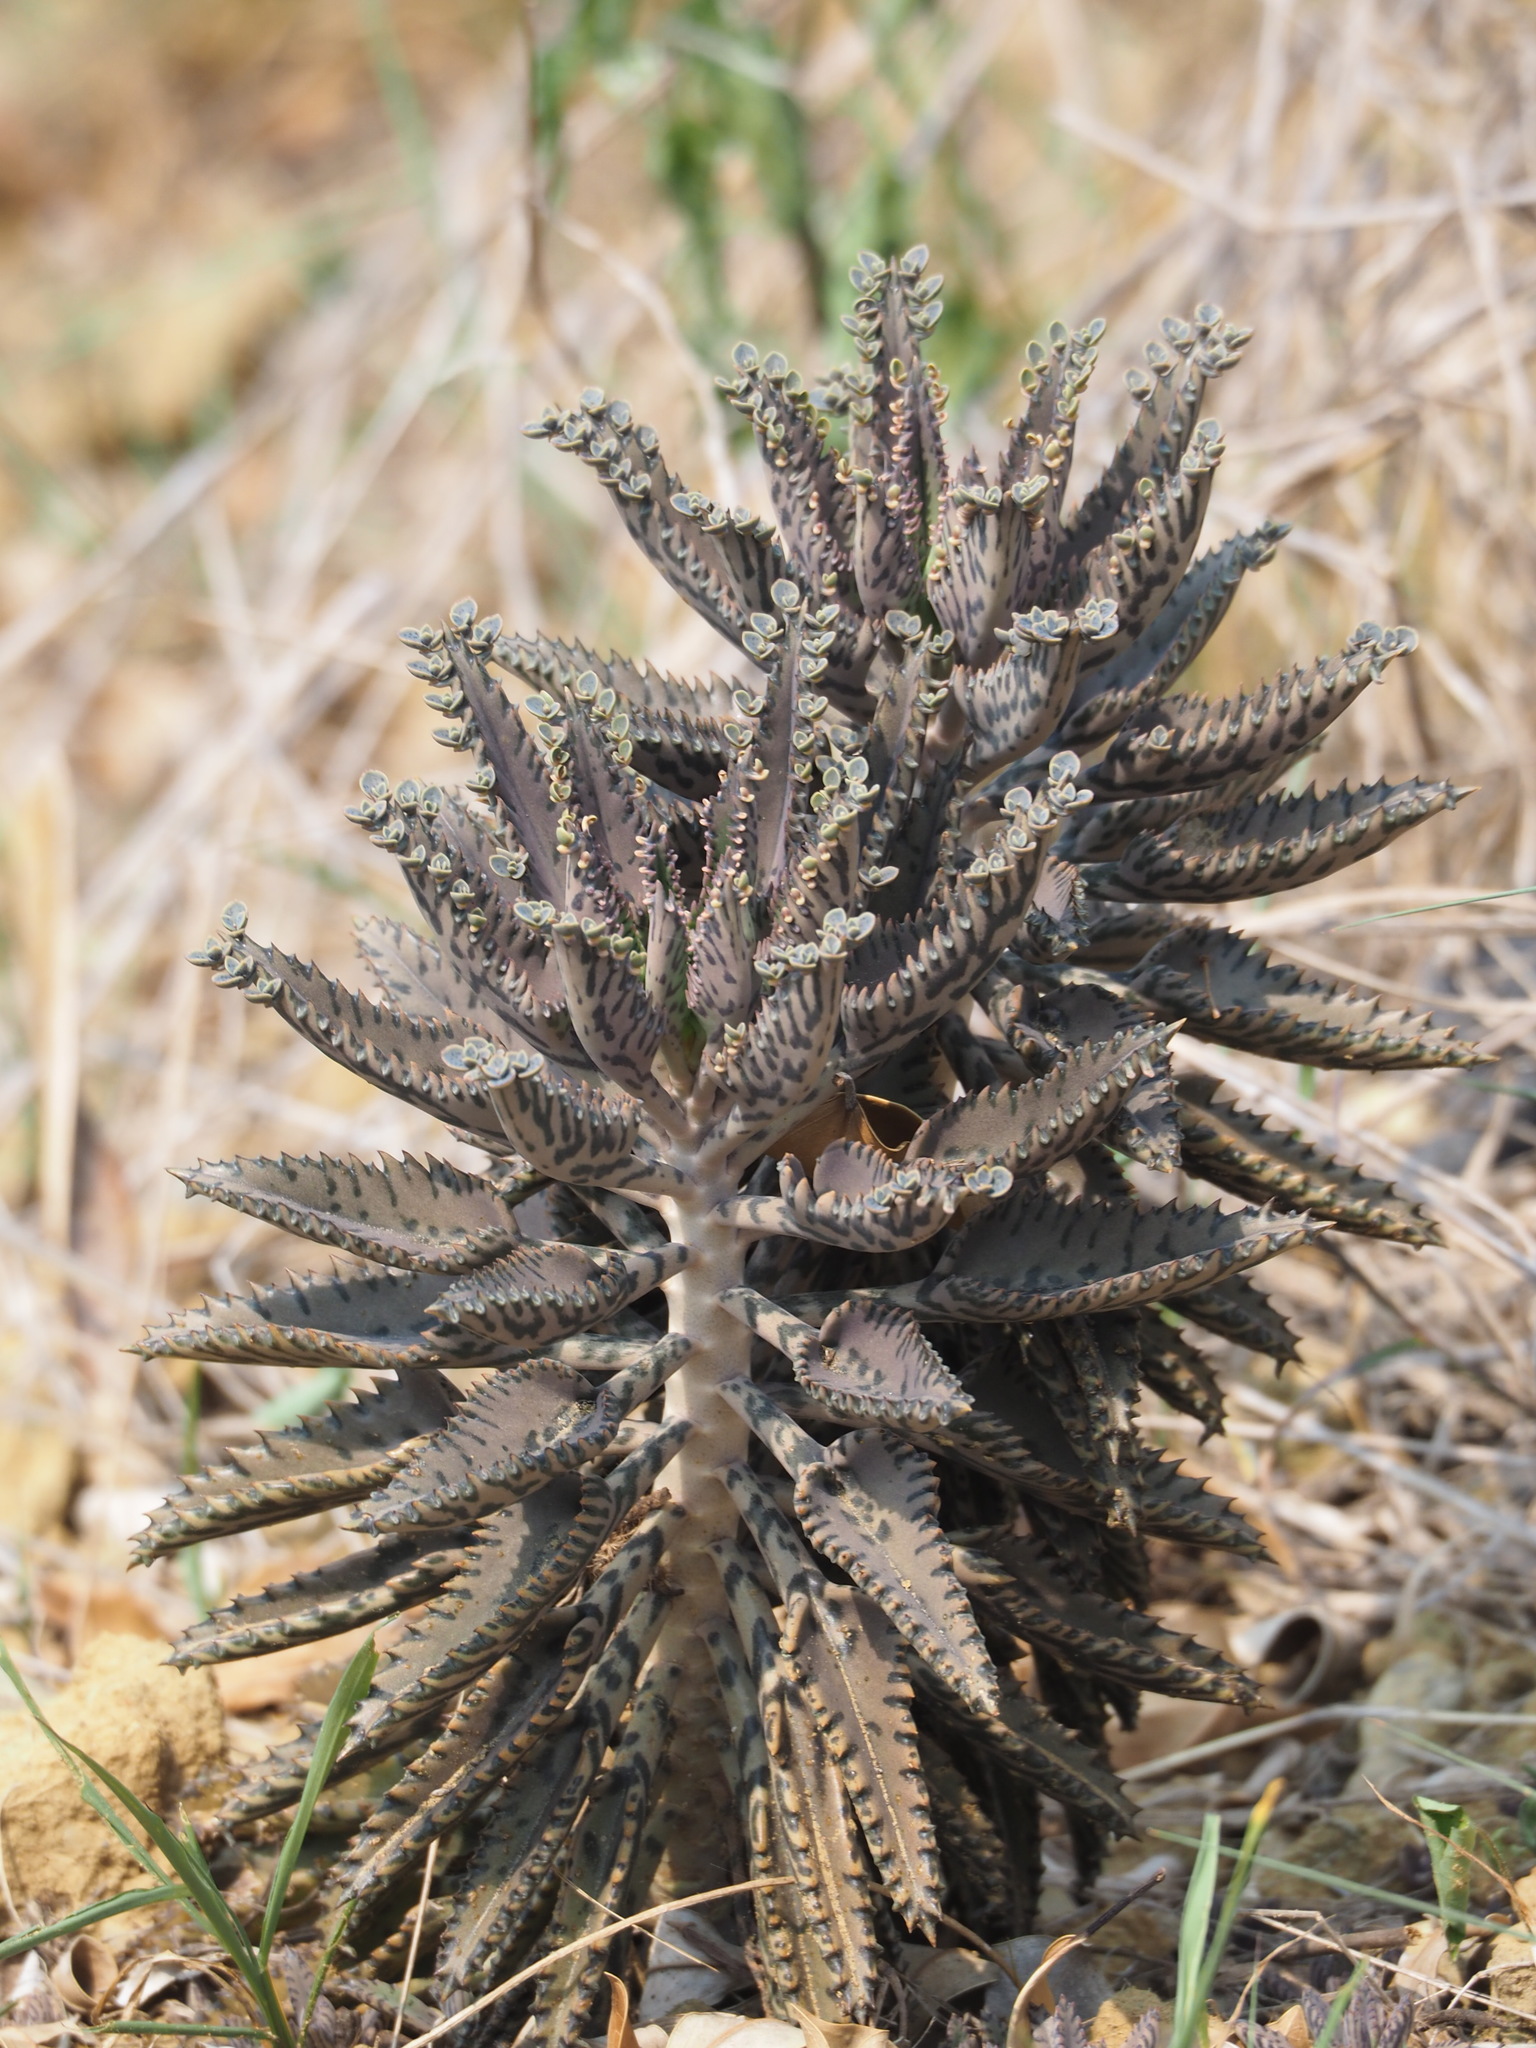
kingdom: Plantae
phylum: Tracheophyta
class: Magnoliopsida
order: Saxifragales
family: Crassulaceae
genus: Kalanchoe
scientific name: Kalanchoe houghtonii
